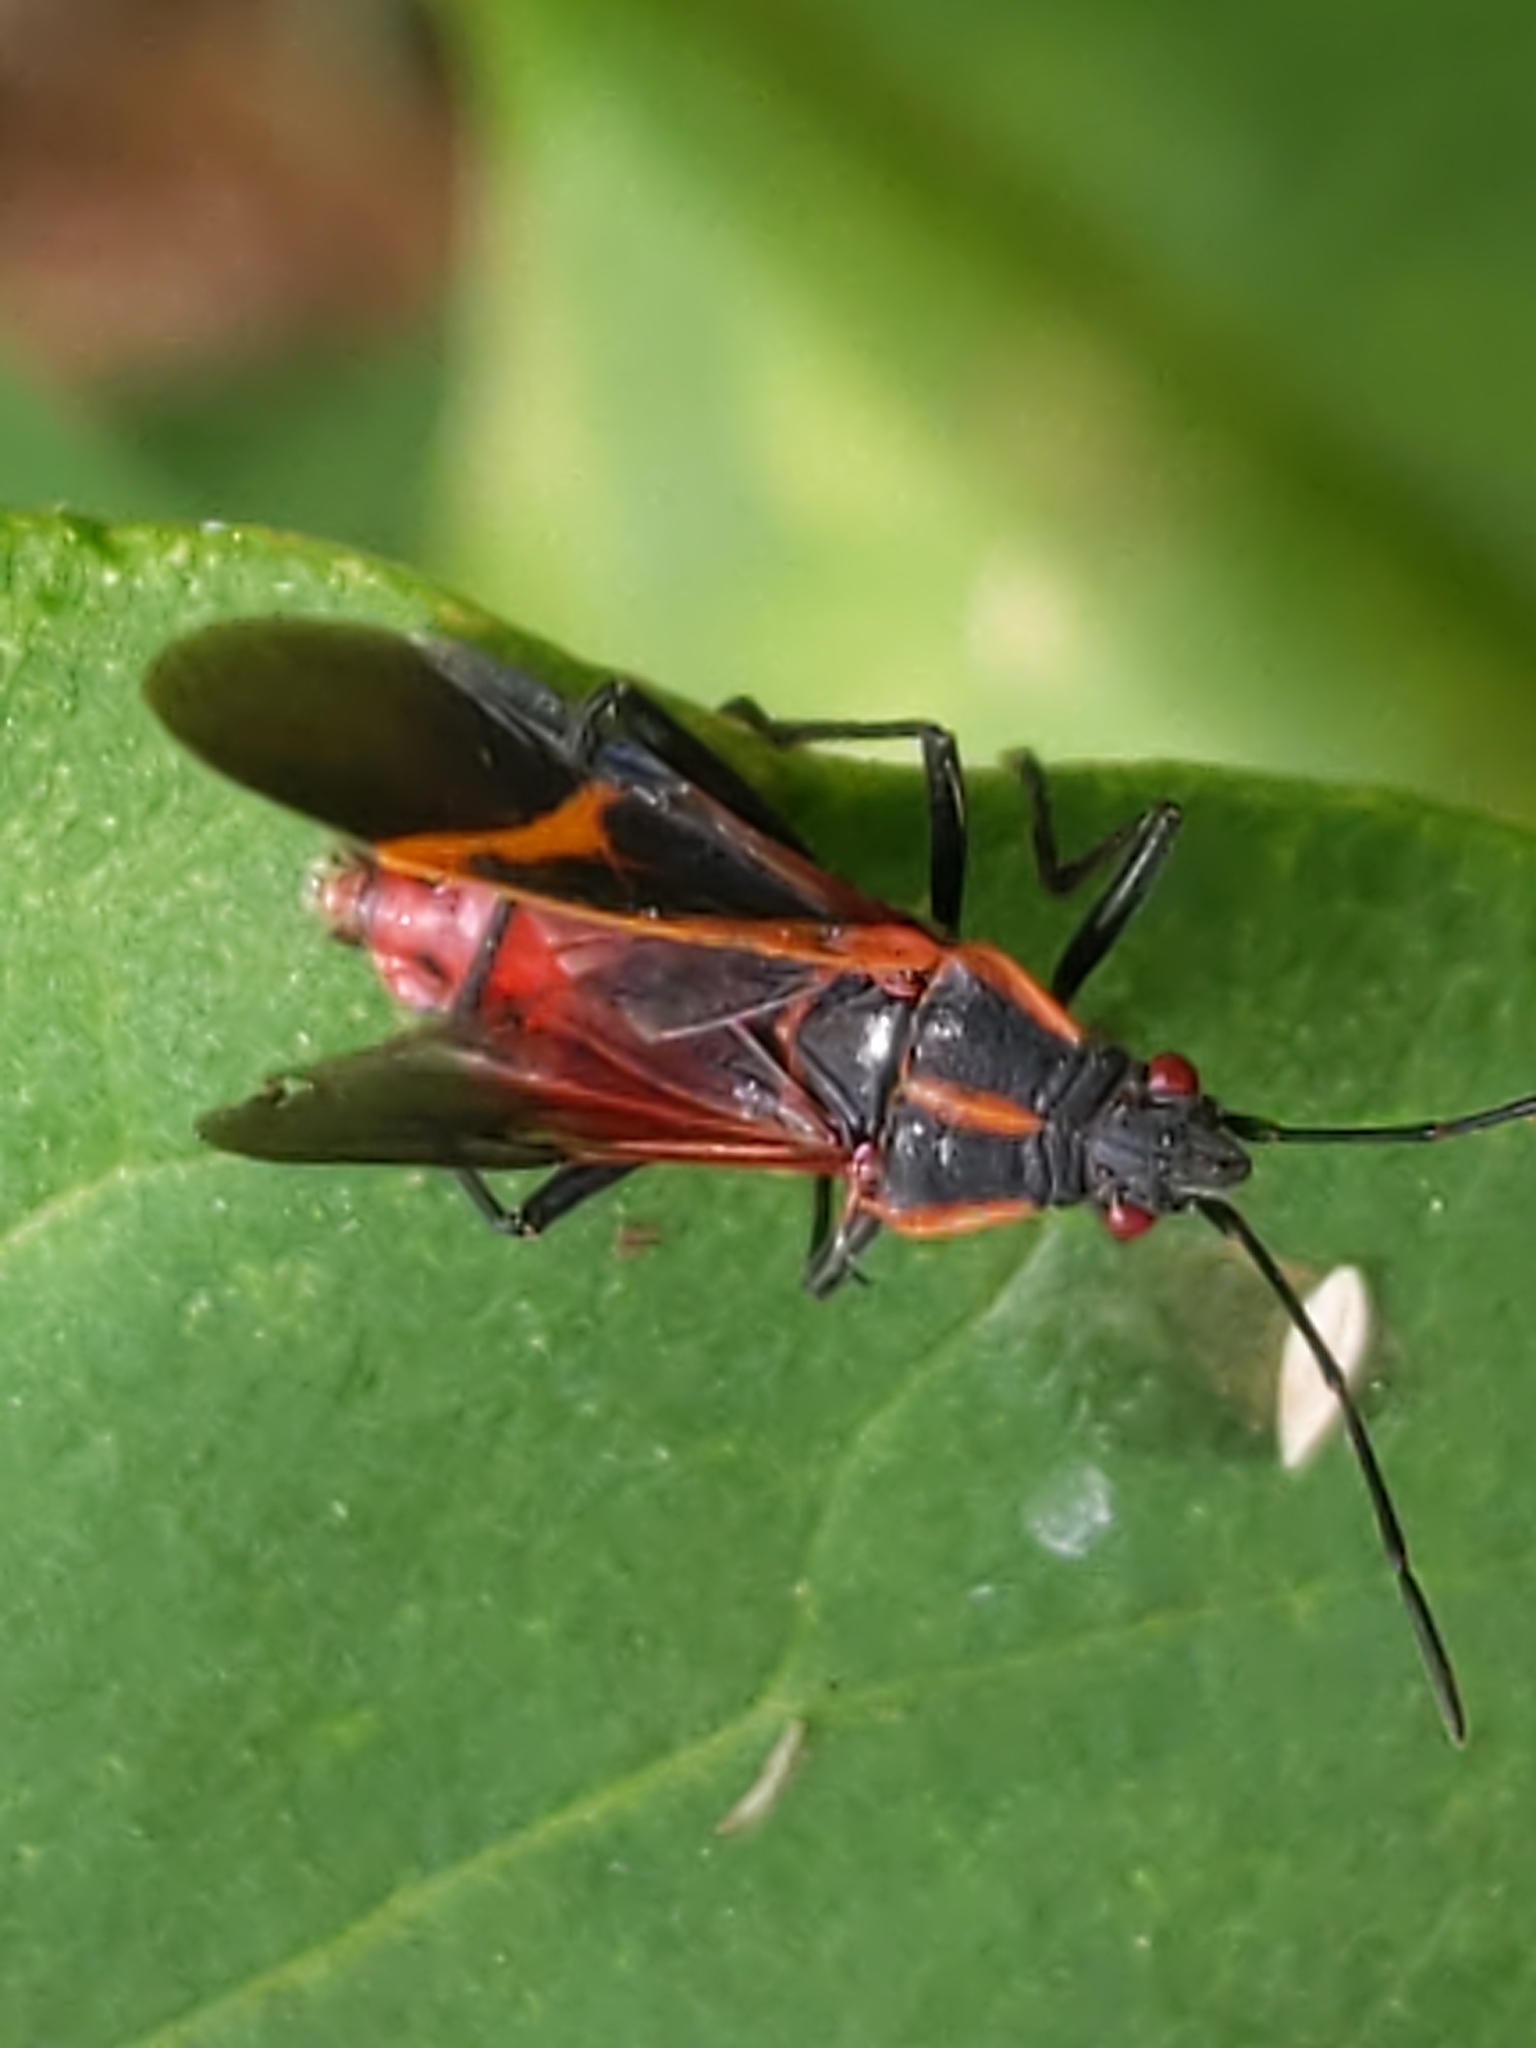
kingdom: Animalia
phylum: Arthropoda
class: Insecta
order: Hemiptera
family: Rhopalidae
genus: Boisea
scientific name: Boisea trivittata
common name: Boxelder bug
